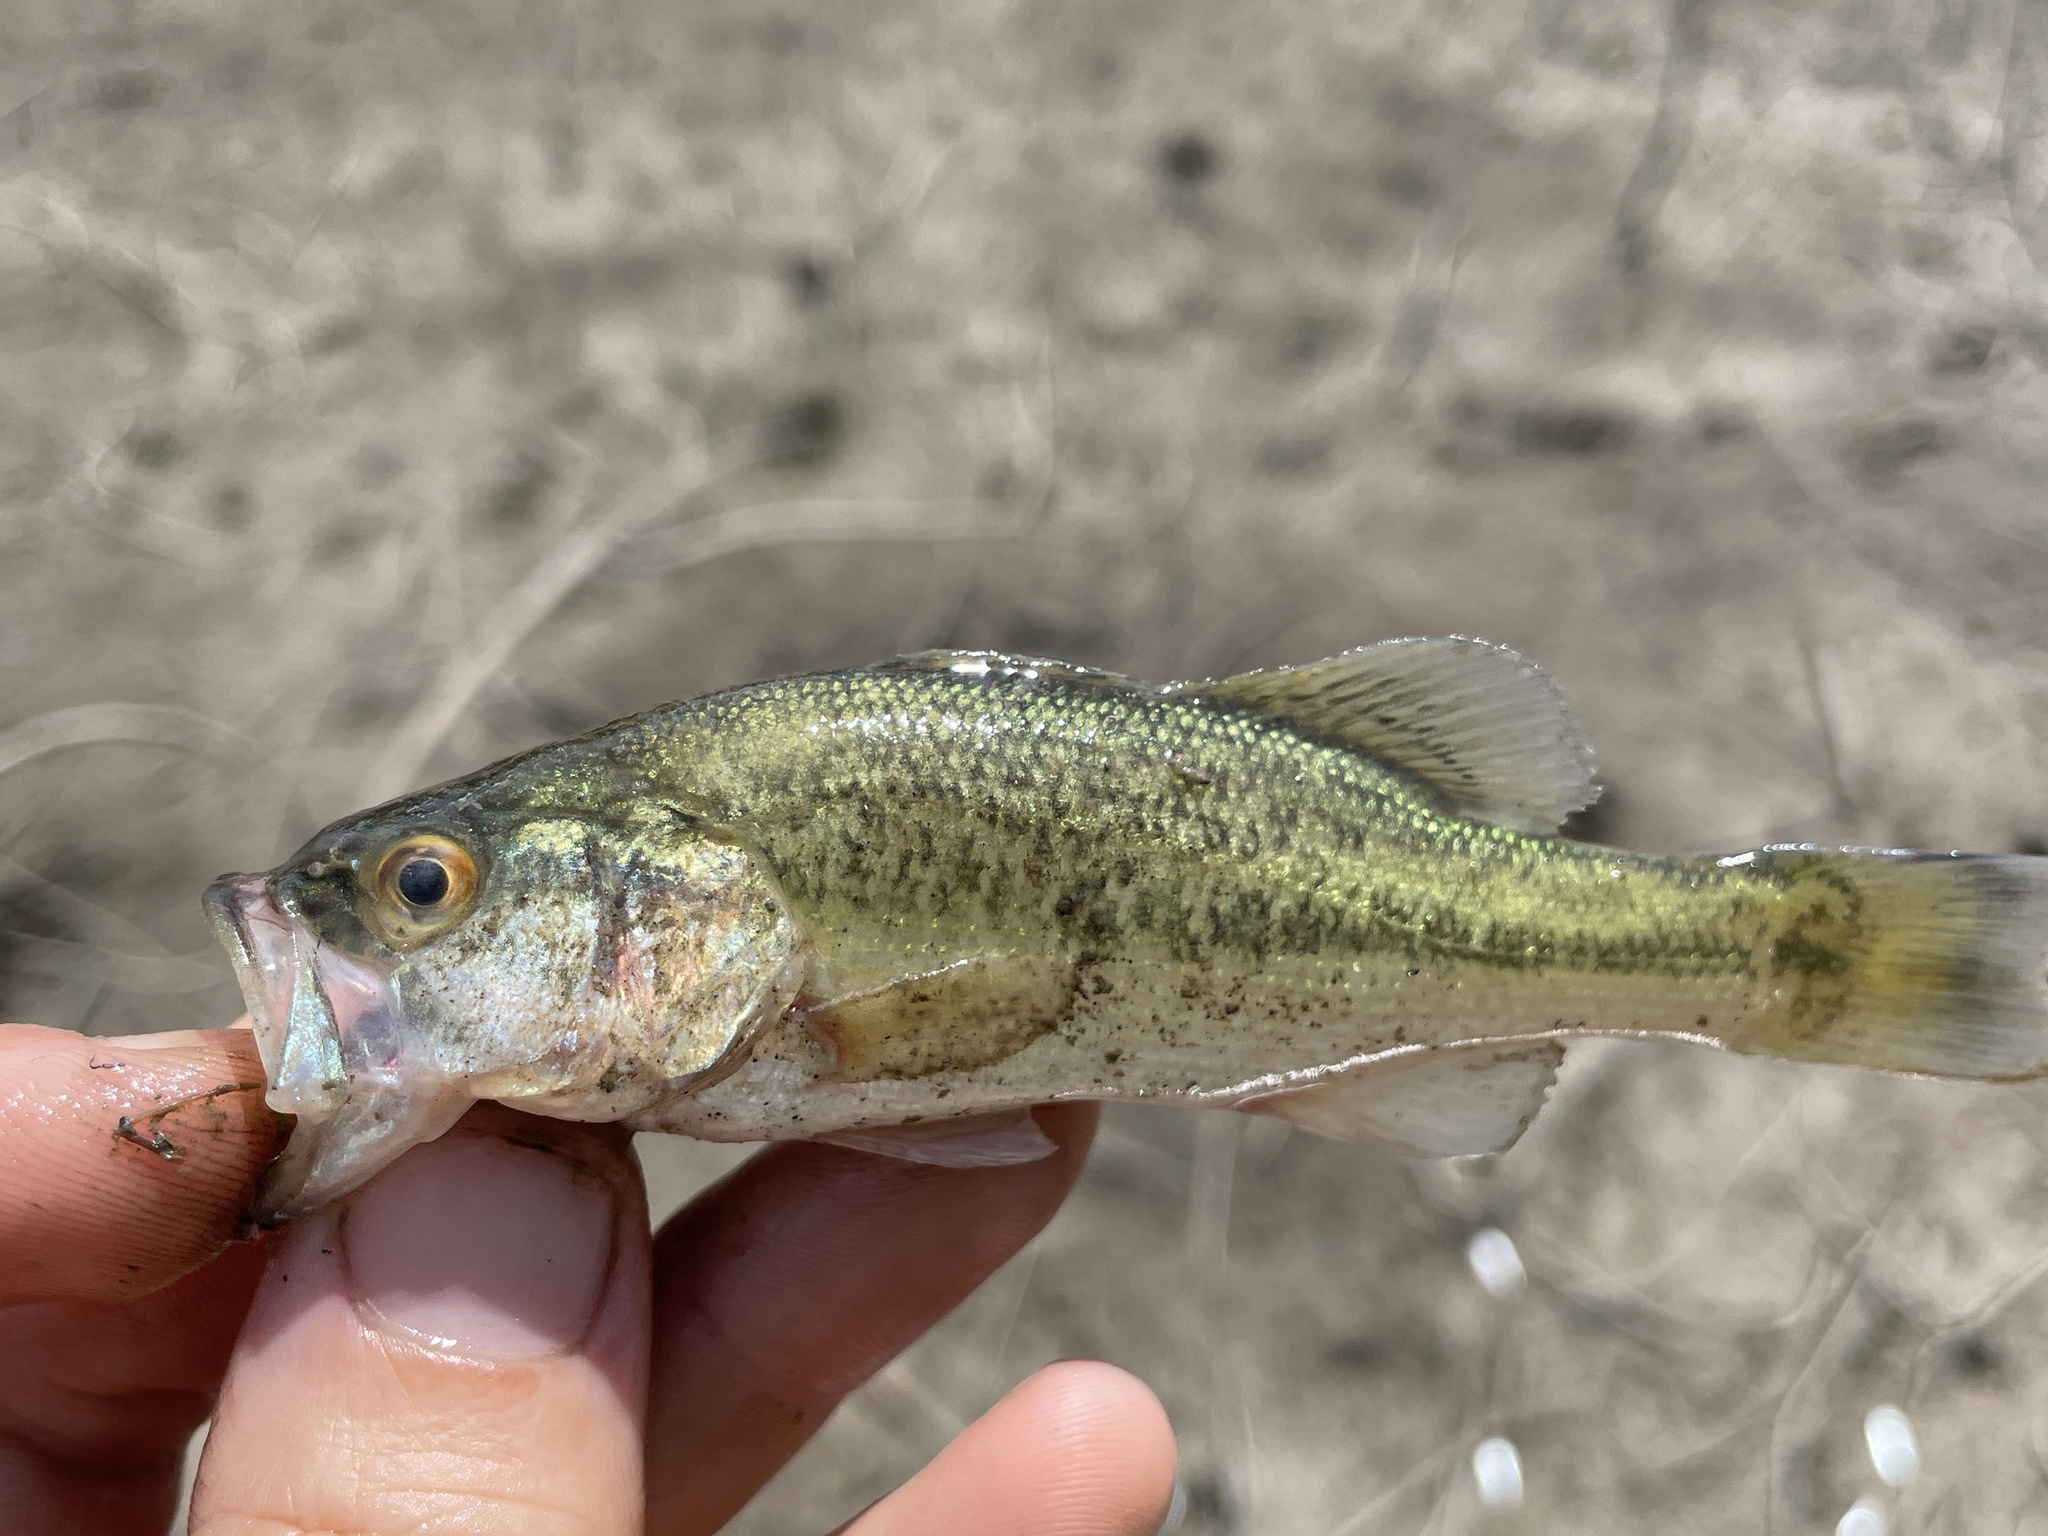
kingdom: Animalia
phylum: Chordata
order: Perciformes
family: Centrarchidae
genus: Micropterus
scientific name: Micropterus
